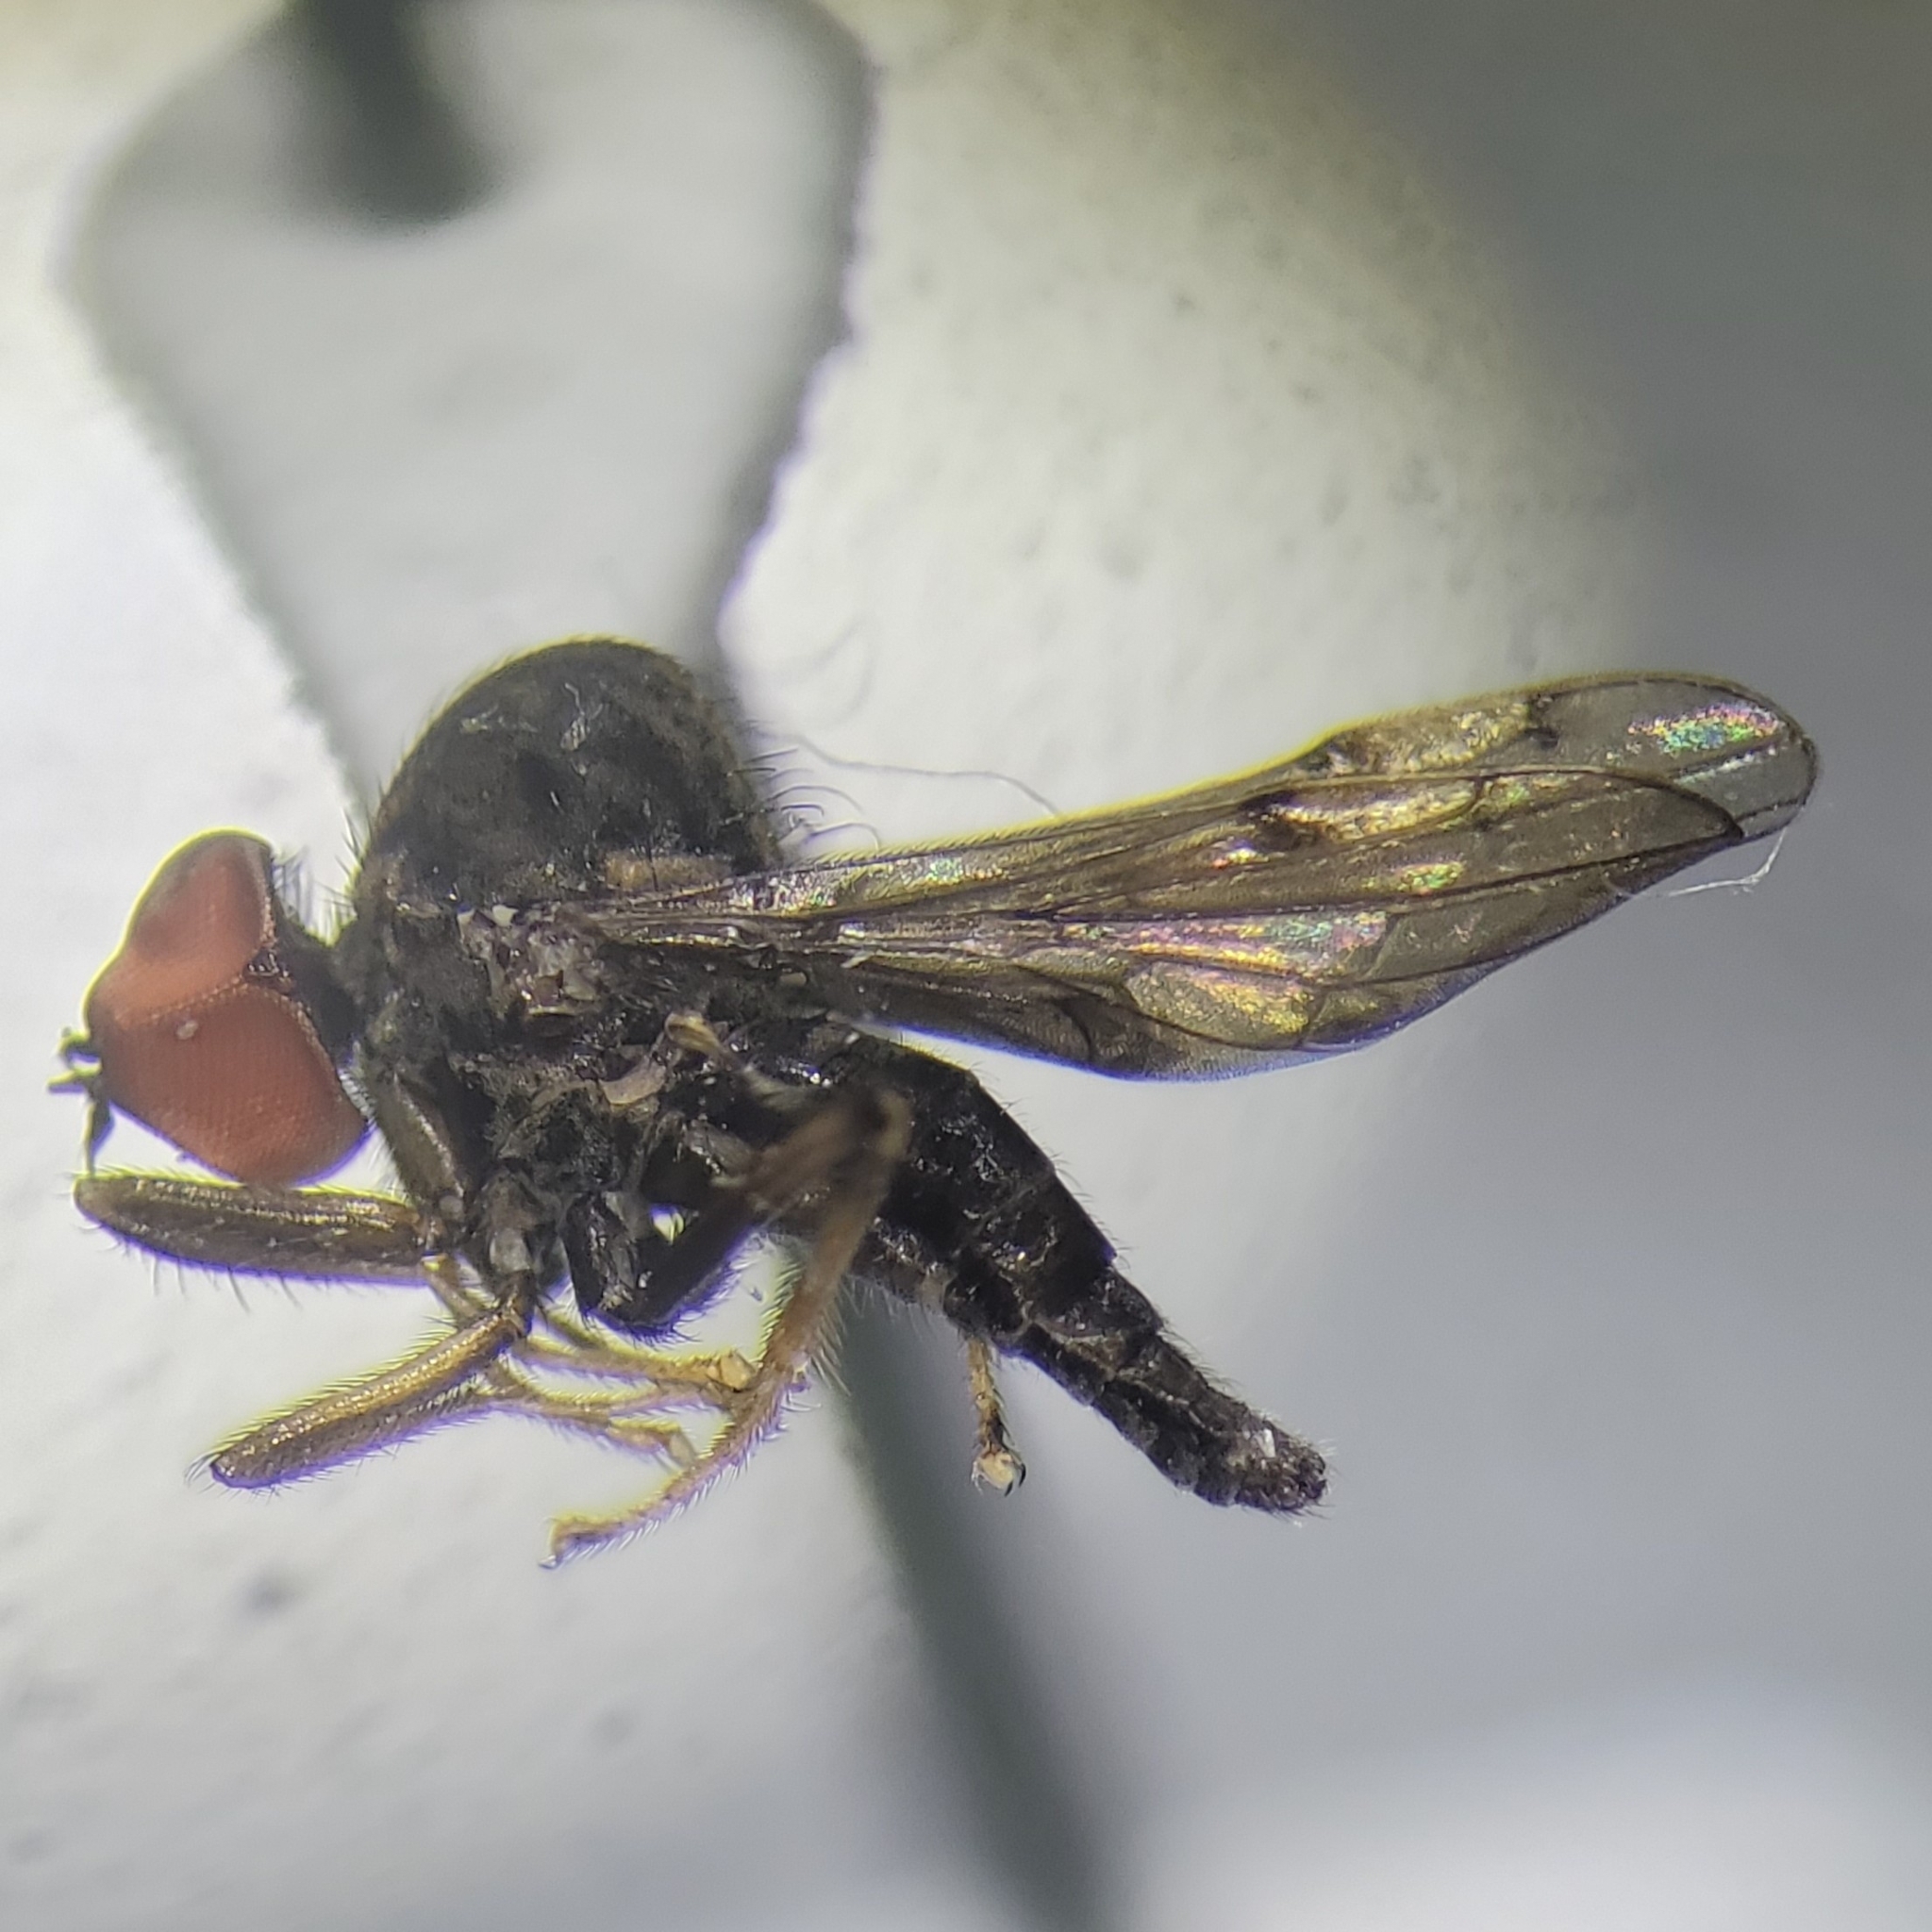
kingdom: Animalia
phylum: Arthropoda
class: Insecta
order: Diptera
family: Hybotidae
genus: Syneches
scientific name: Syneches simplex
